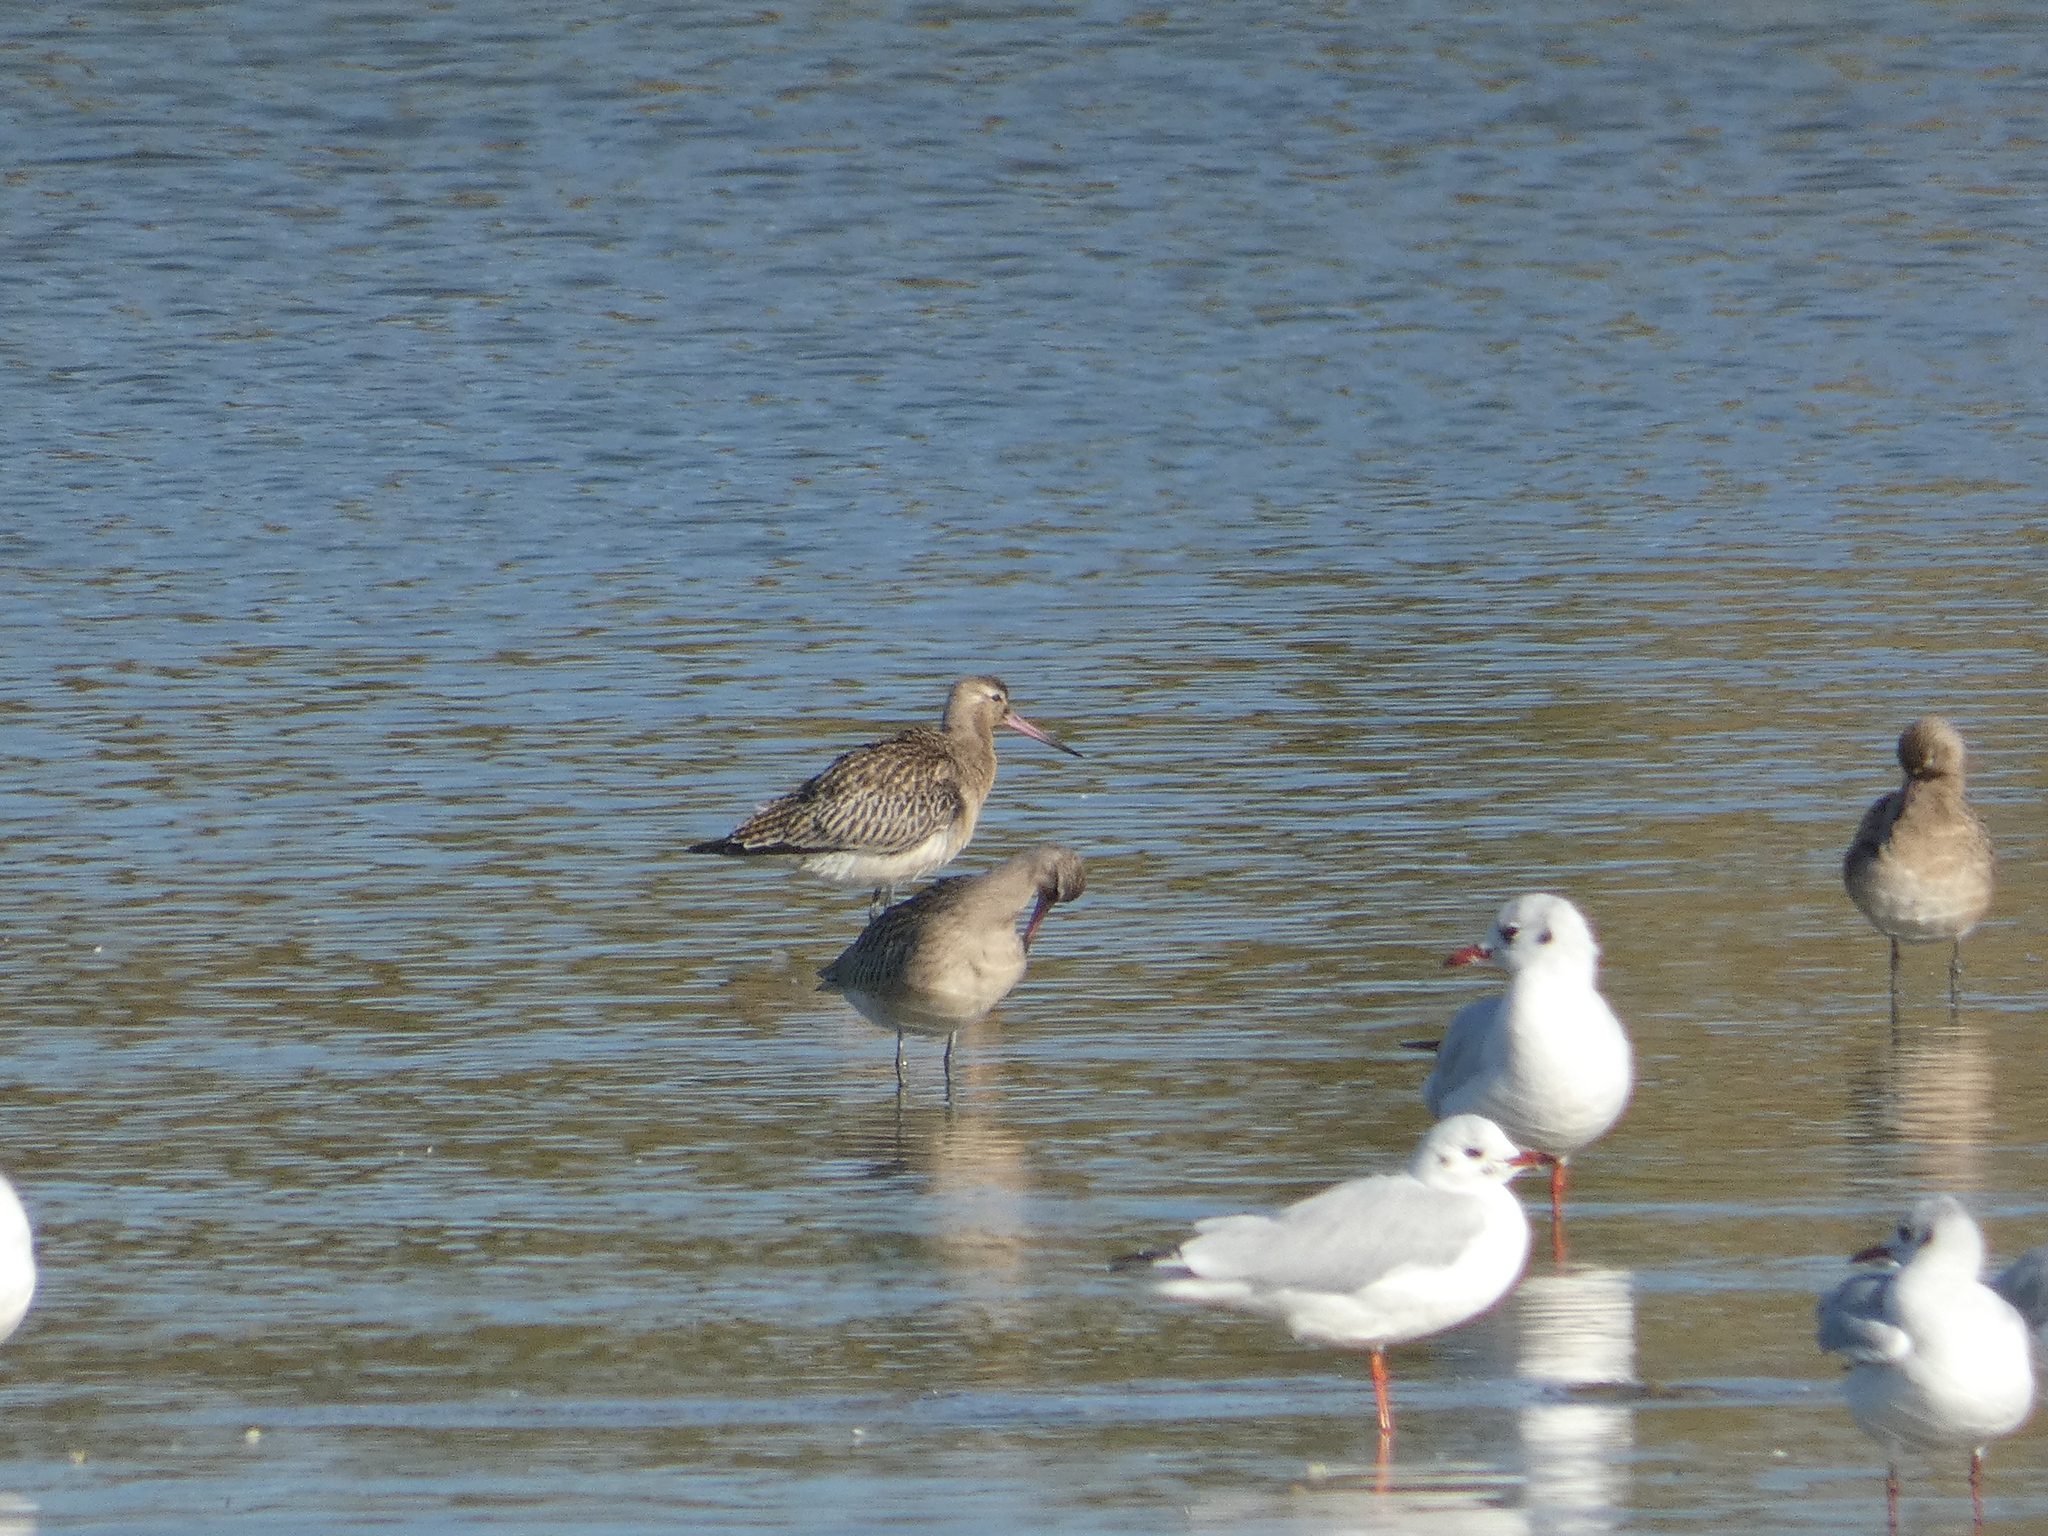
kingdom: Animalia
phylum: Chordata
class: Aves
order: Charadriiformes
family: Scolopacidae
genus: Limosa
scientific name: Limosa lapponica
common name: Bar-tailed godwit
